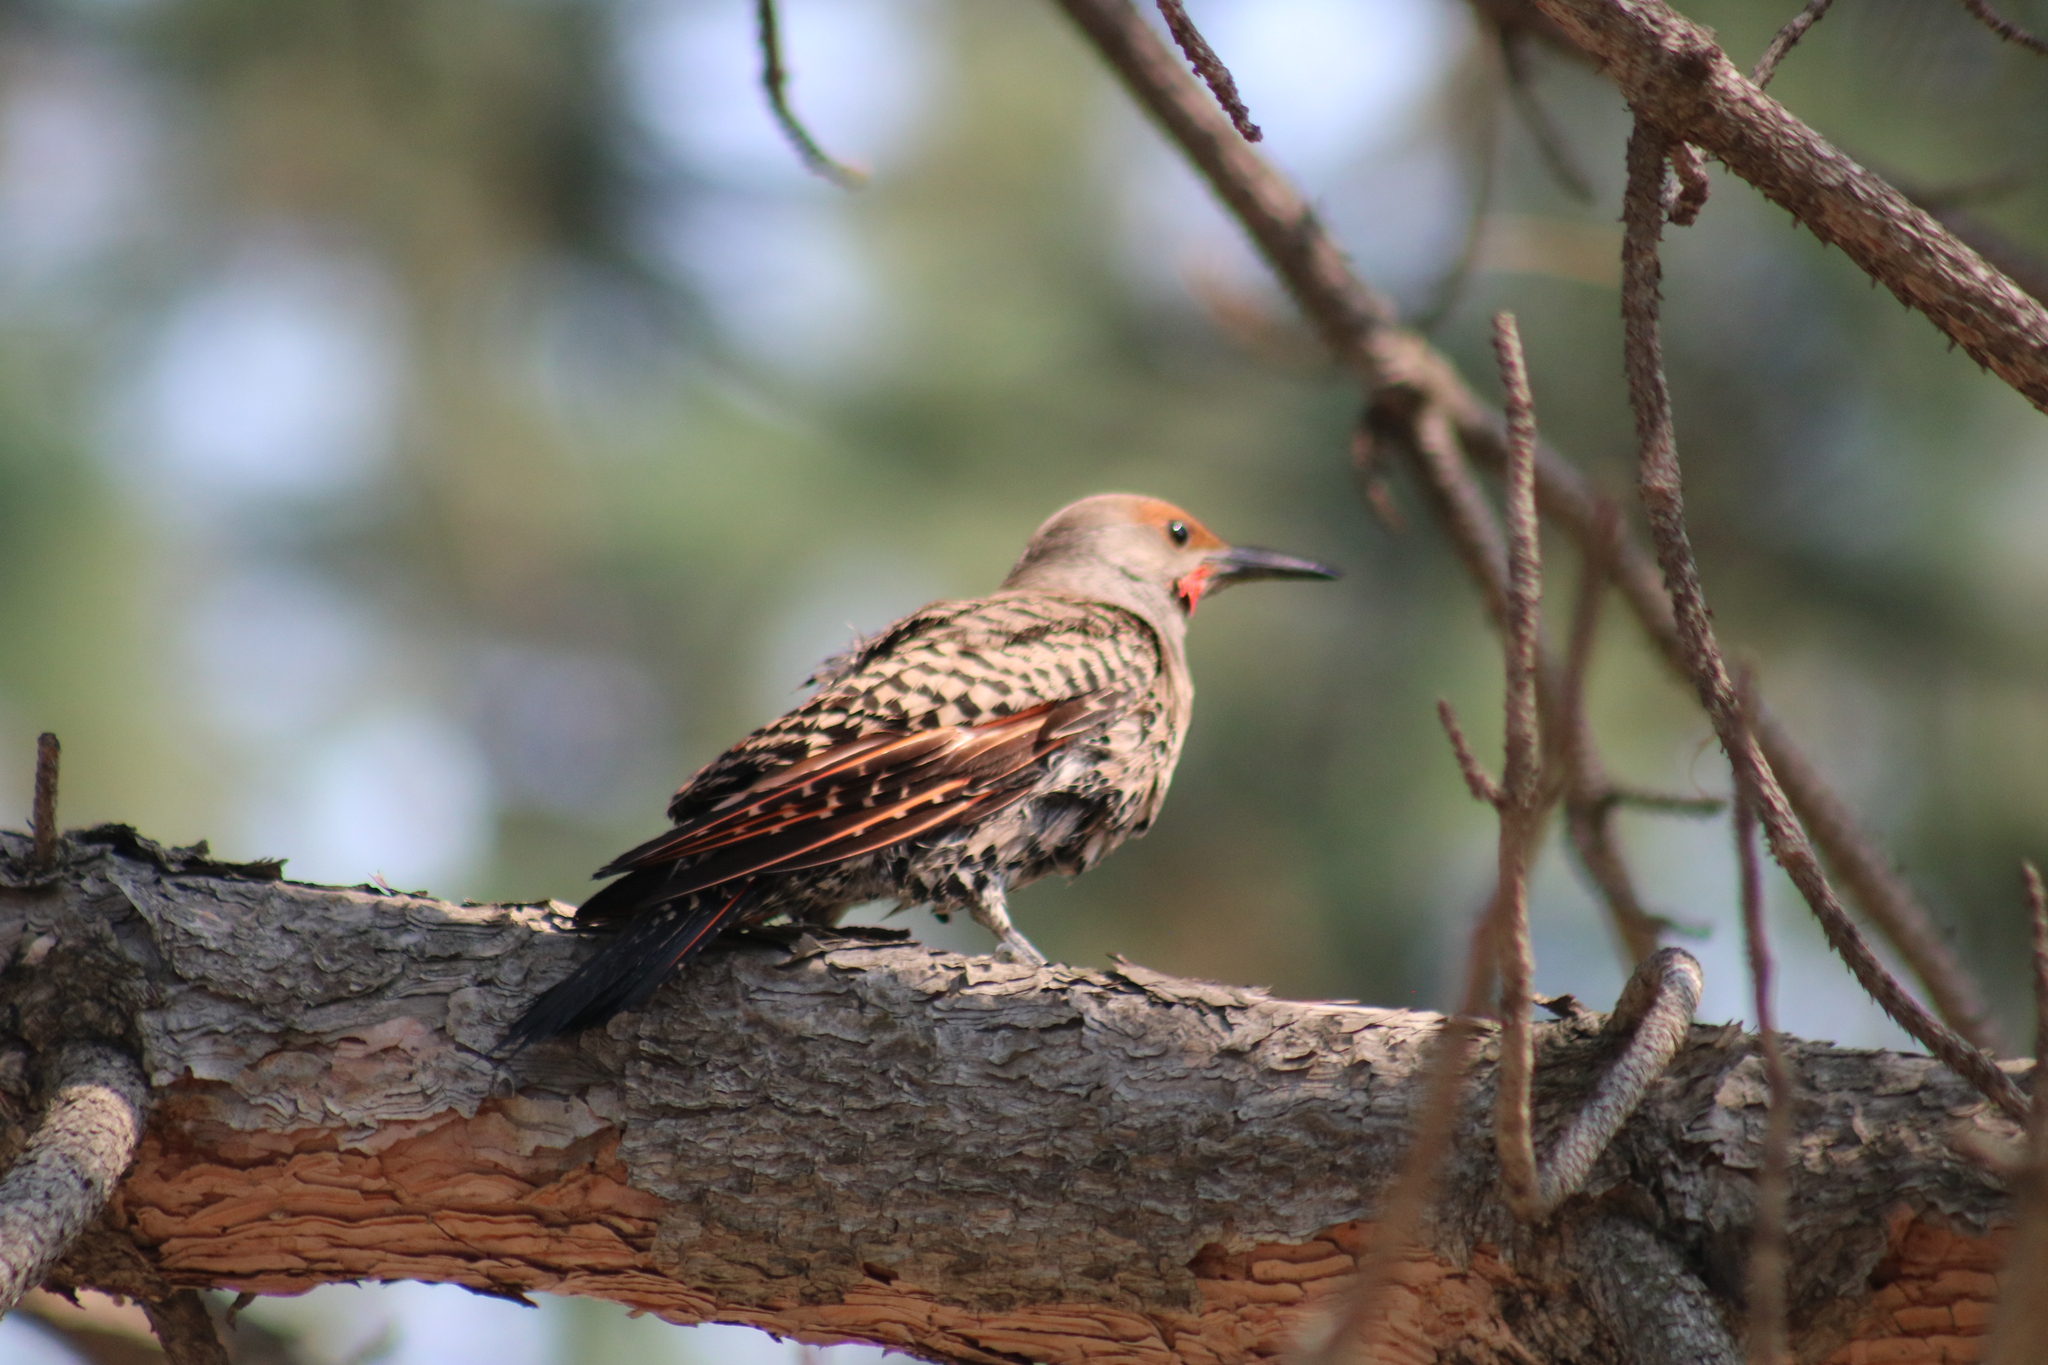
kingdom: Animalia
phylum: Chordata
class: Aves
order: Piciformes
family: Picidae
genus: Colaptes
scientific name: Colaptes auratus
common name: Northern flicker
